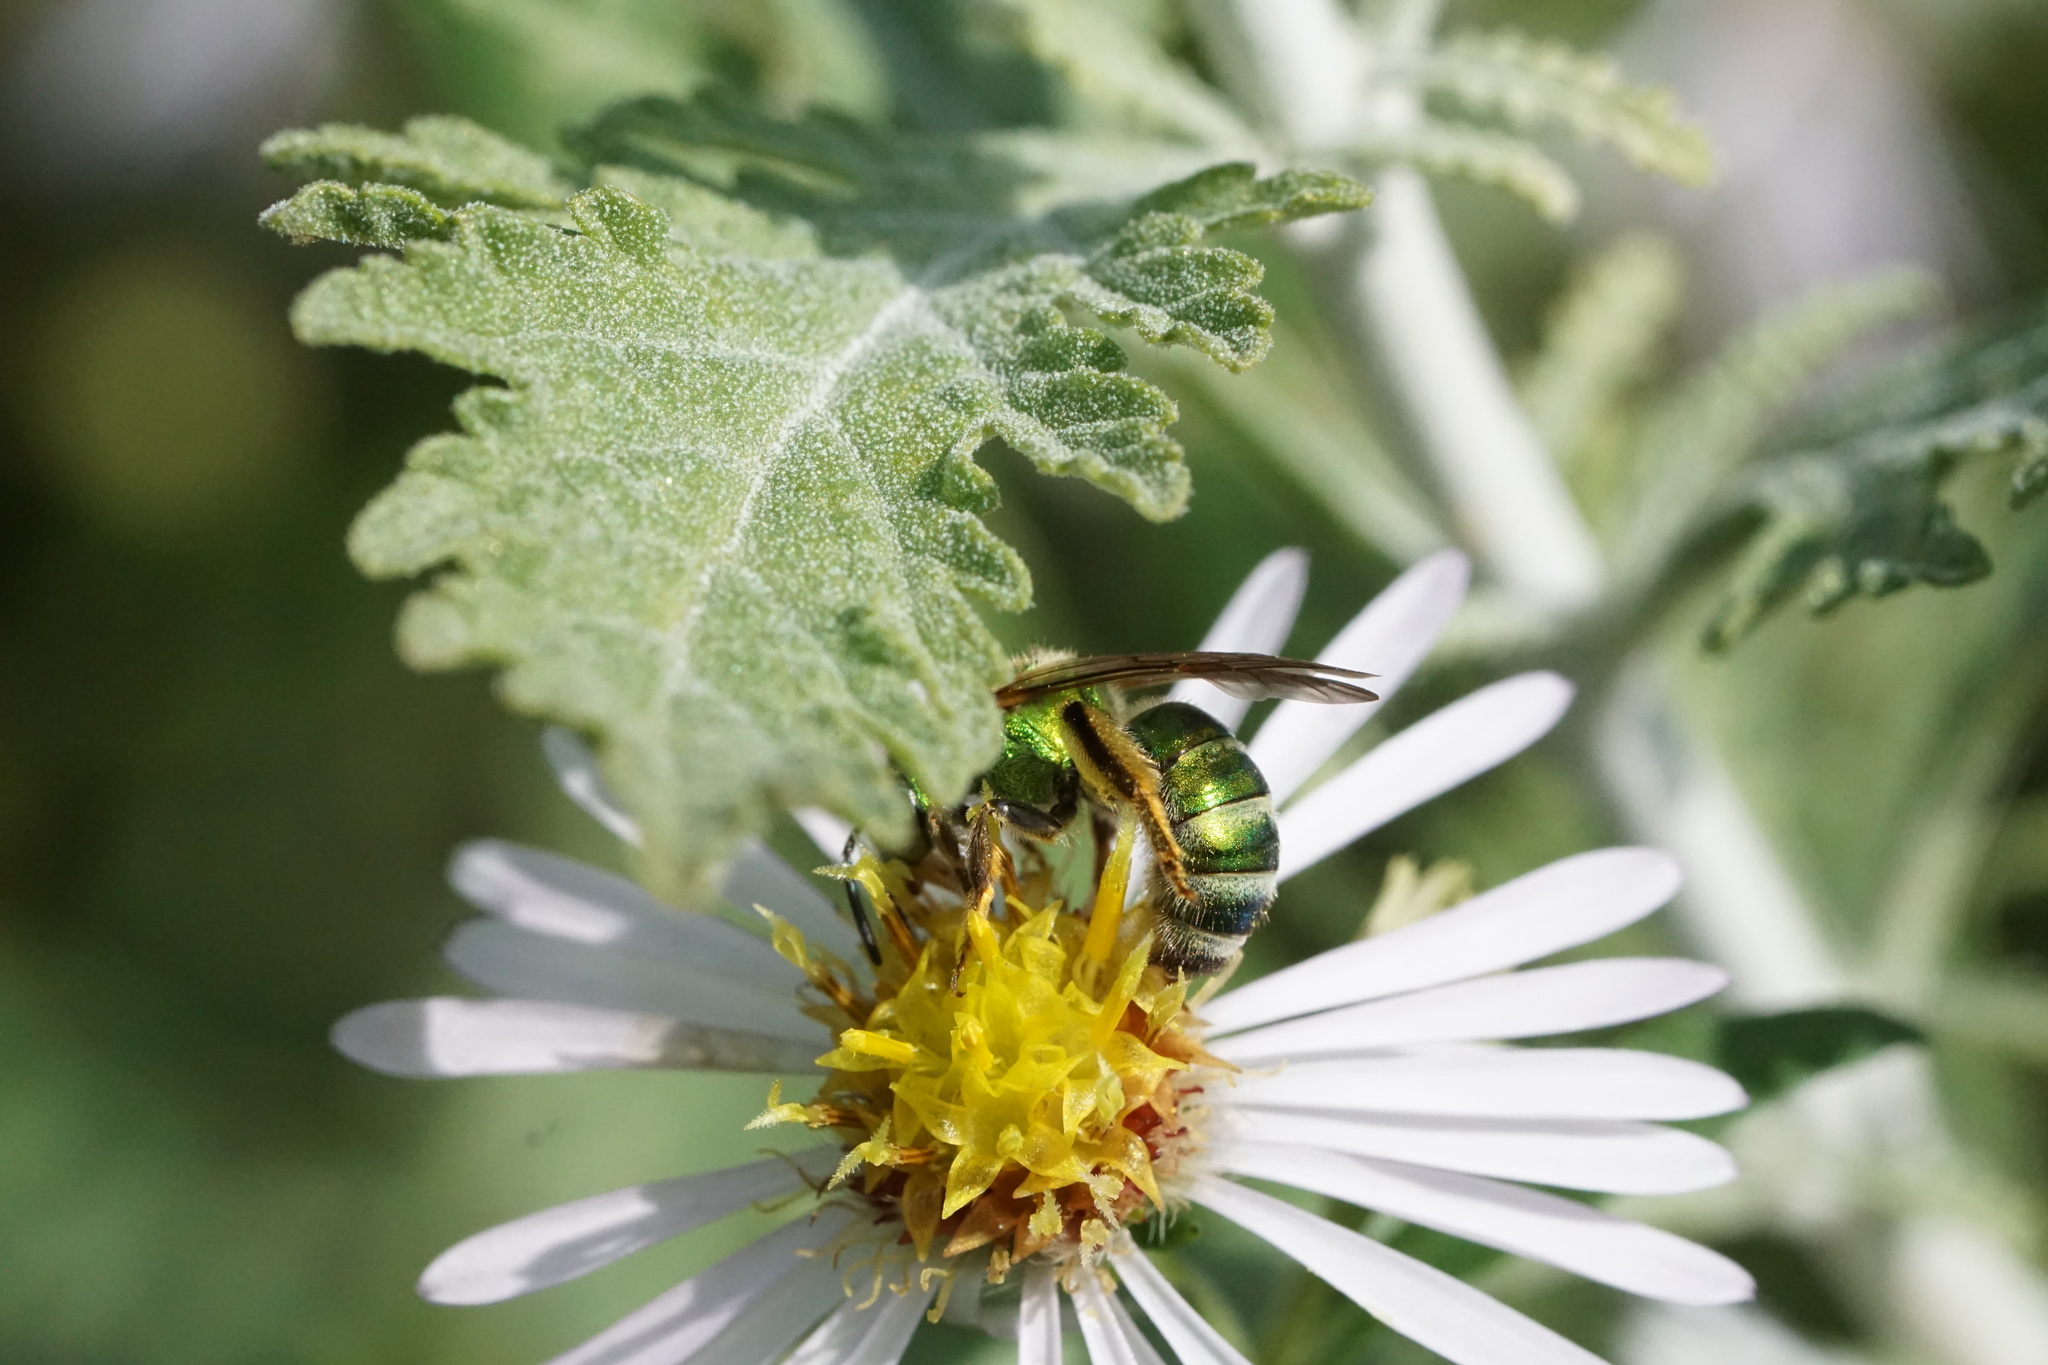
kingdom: Animalia
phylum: Arthropoda
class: Insecta
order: Hymenoptera
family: Halictidae
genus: Agapostemon
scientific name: Agapostemon sericeus
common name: Silky striped sweat bee
